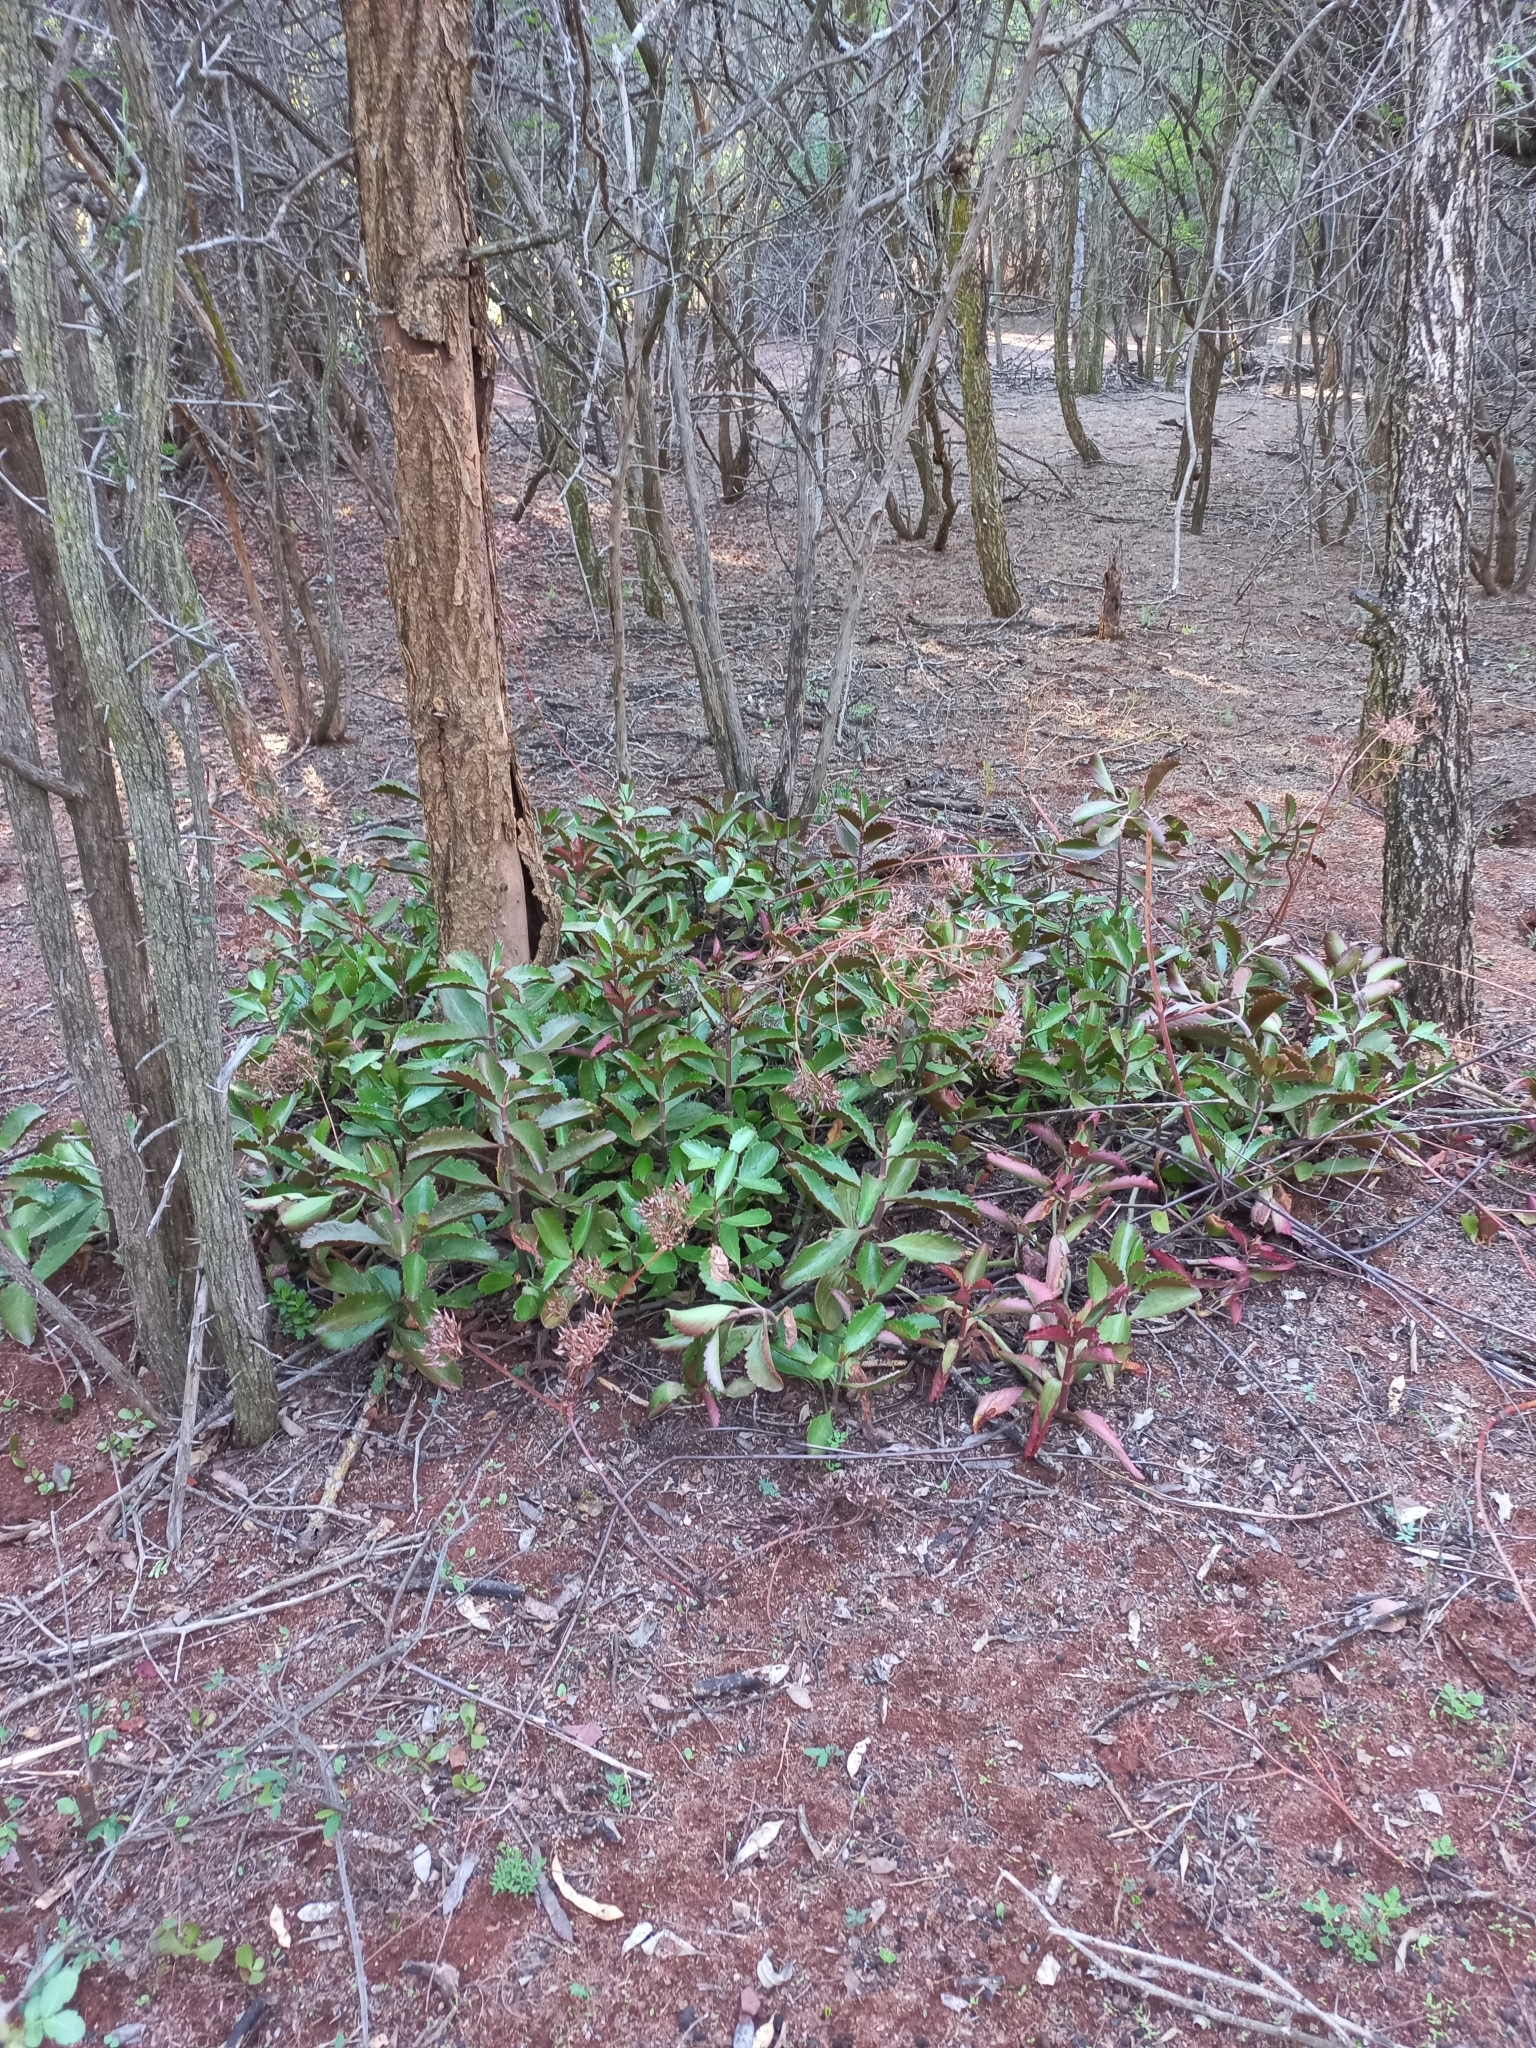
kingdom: Plantae
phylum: Tracheophyta
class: Magnoliopsida
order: Saxifragales
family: Crassulaceae
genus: Kalanchoe
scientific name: Kalanchoe sexangularis
